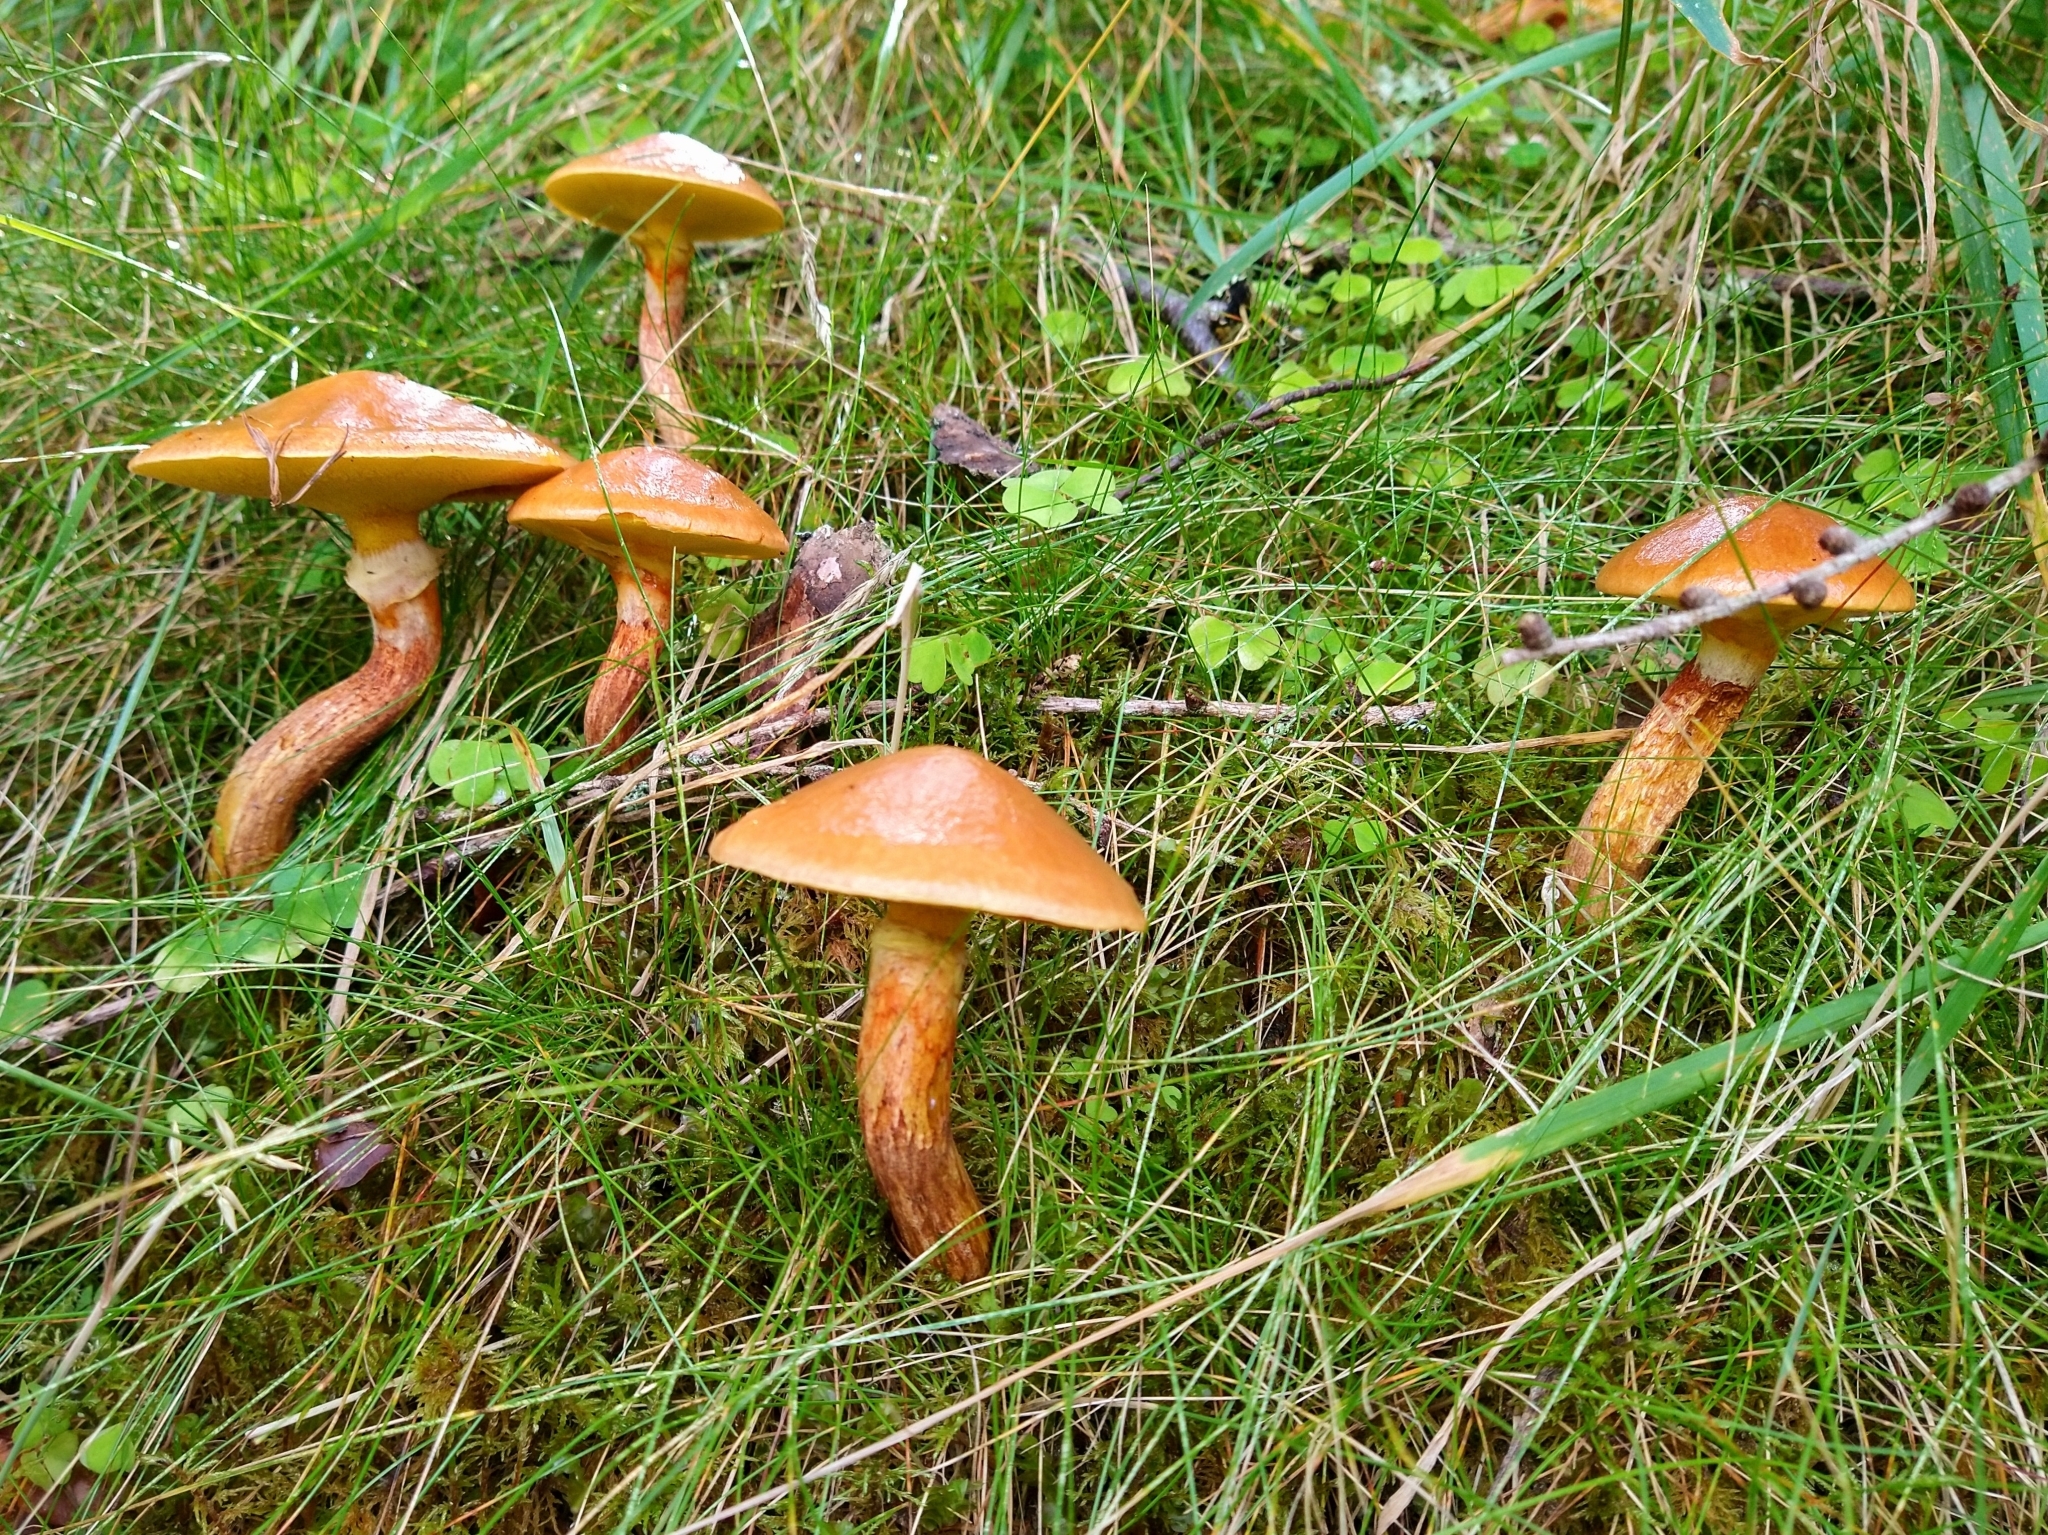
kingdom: Fungi
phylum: Basidiomycota
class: Agaricomycetes
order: Boletales
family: Suillaceae
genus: Suillus
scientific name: Suillus grevillei
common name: Larch bolete
